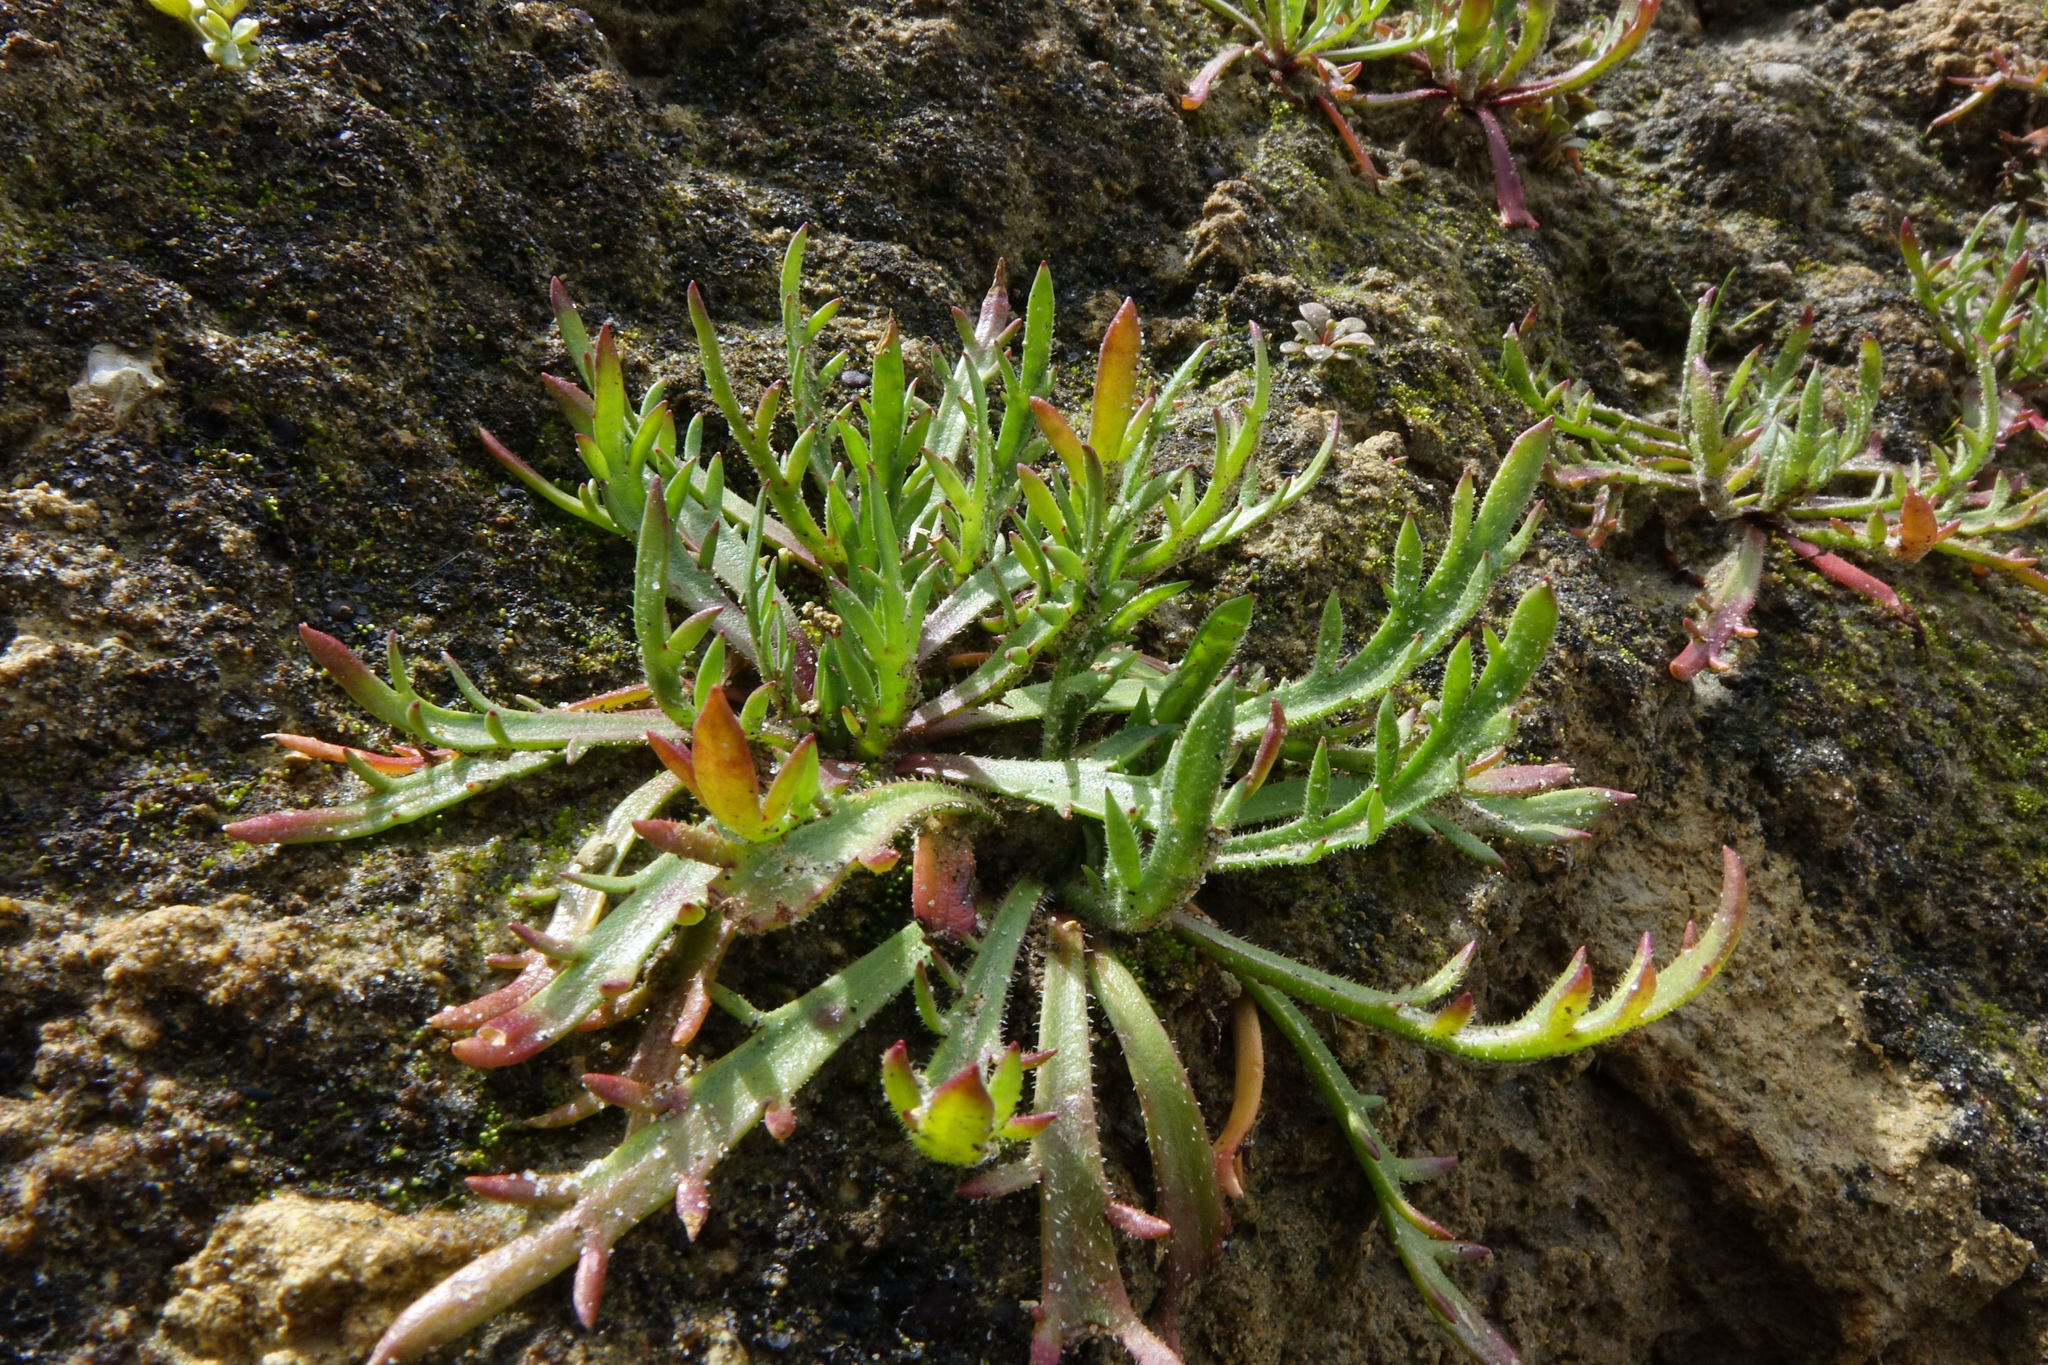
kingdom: Plantae
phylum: Tracheophyta
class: Magnoliopsida
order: Lamiales
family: Plantaginaceae
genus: Plantago
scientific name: Plantago coronopus
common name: Buck's-horn plantain
